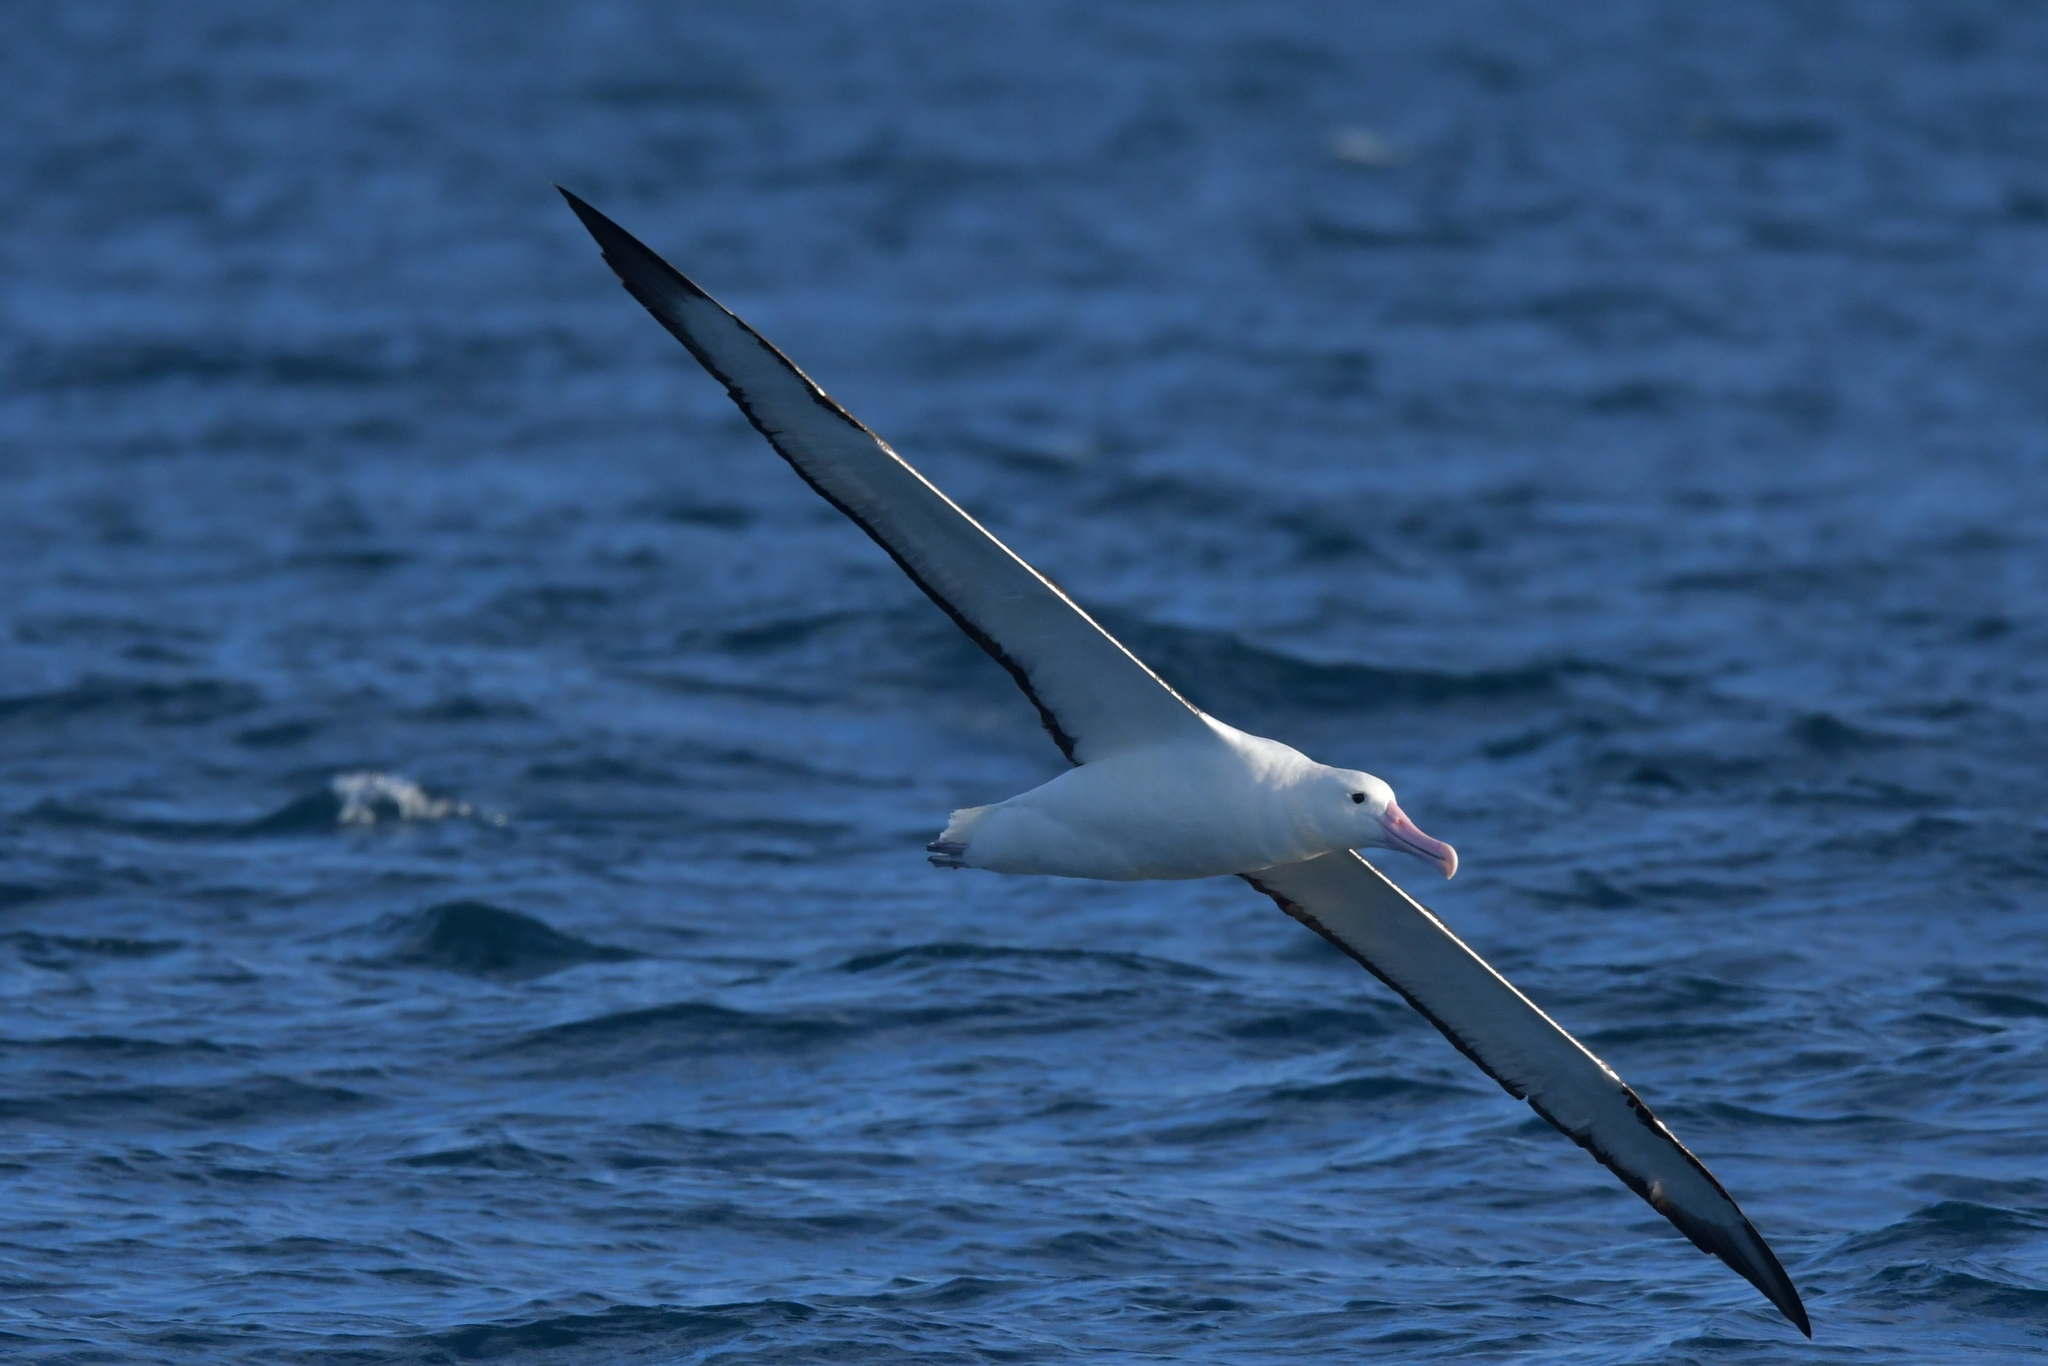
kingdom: Animalia
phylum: Chordata
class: Aves
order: Procellariiformes
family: Diomedeidae
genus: Diomedea
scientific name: Diomedea sanfordi
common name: Northern royal albatross
